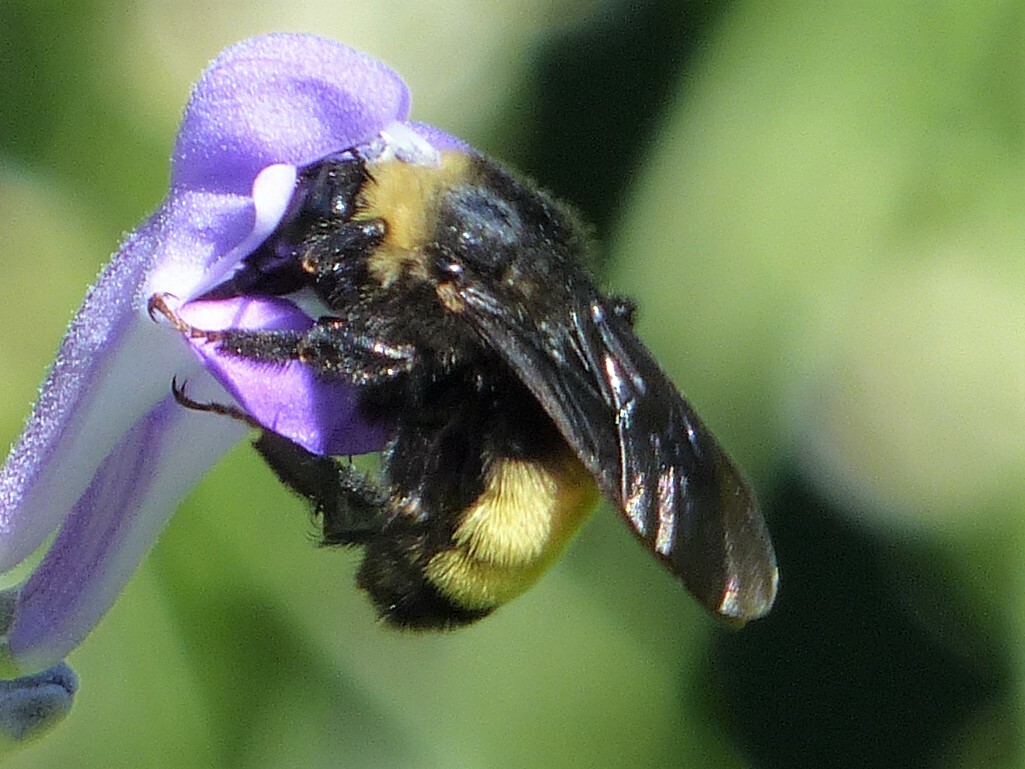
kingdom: Animalia
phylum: Arthropoda
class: Insecta
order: Hymenoptera
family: Apidae
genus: Bombus
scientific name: Bombus pensylvanicus
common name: Bumble bee
